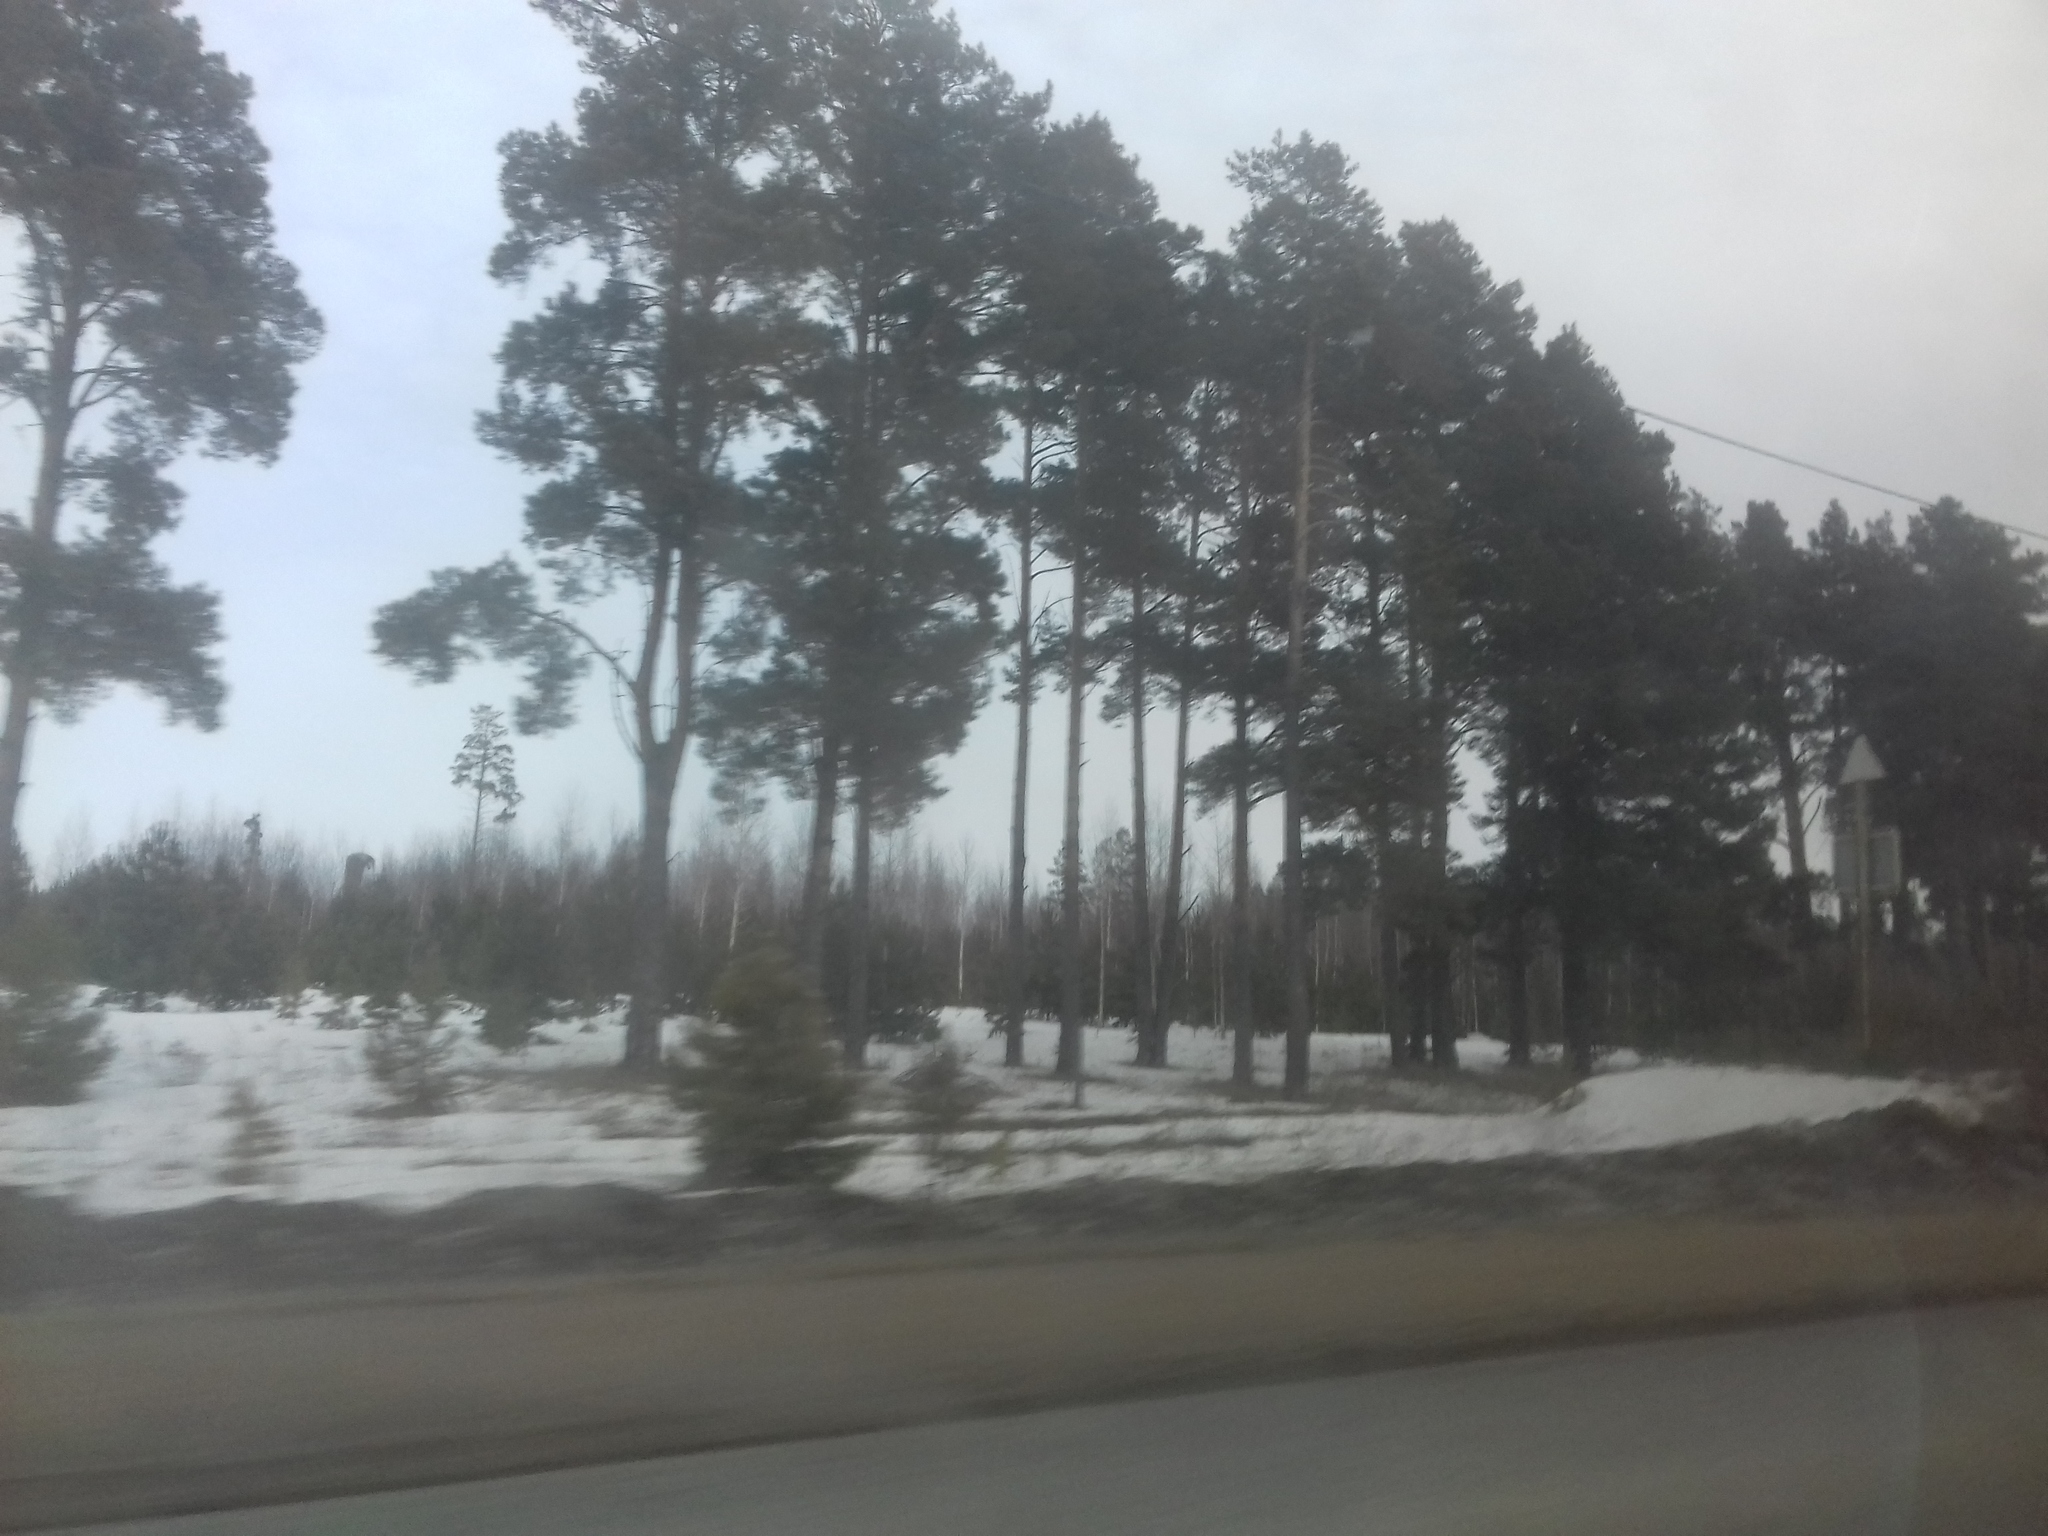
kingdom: Plantae
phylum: Tracheophyta
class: Pinopsida
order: Pinales
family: Pinaceae
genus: Pinus
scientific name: Pinus sylvestris
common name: Scots pine
